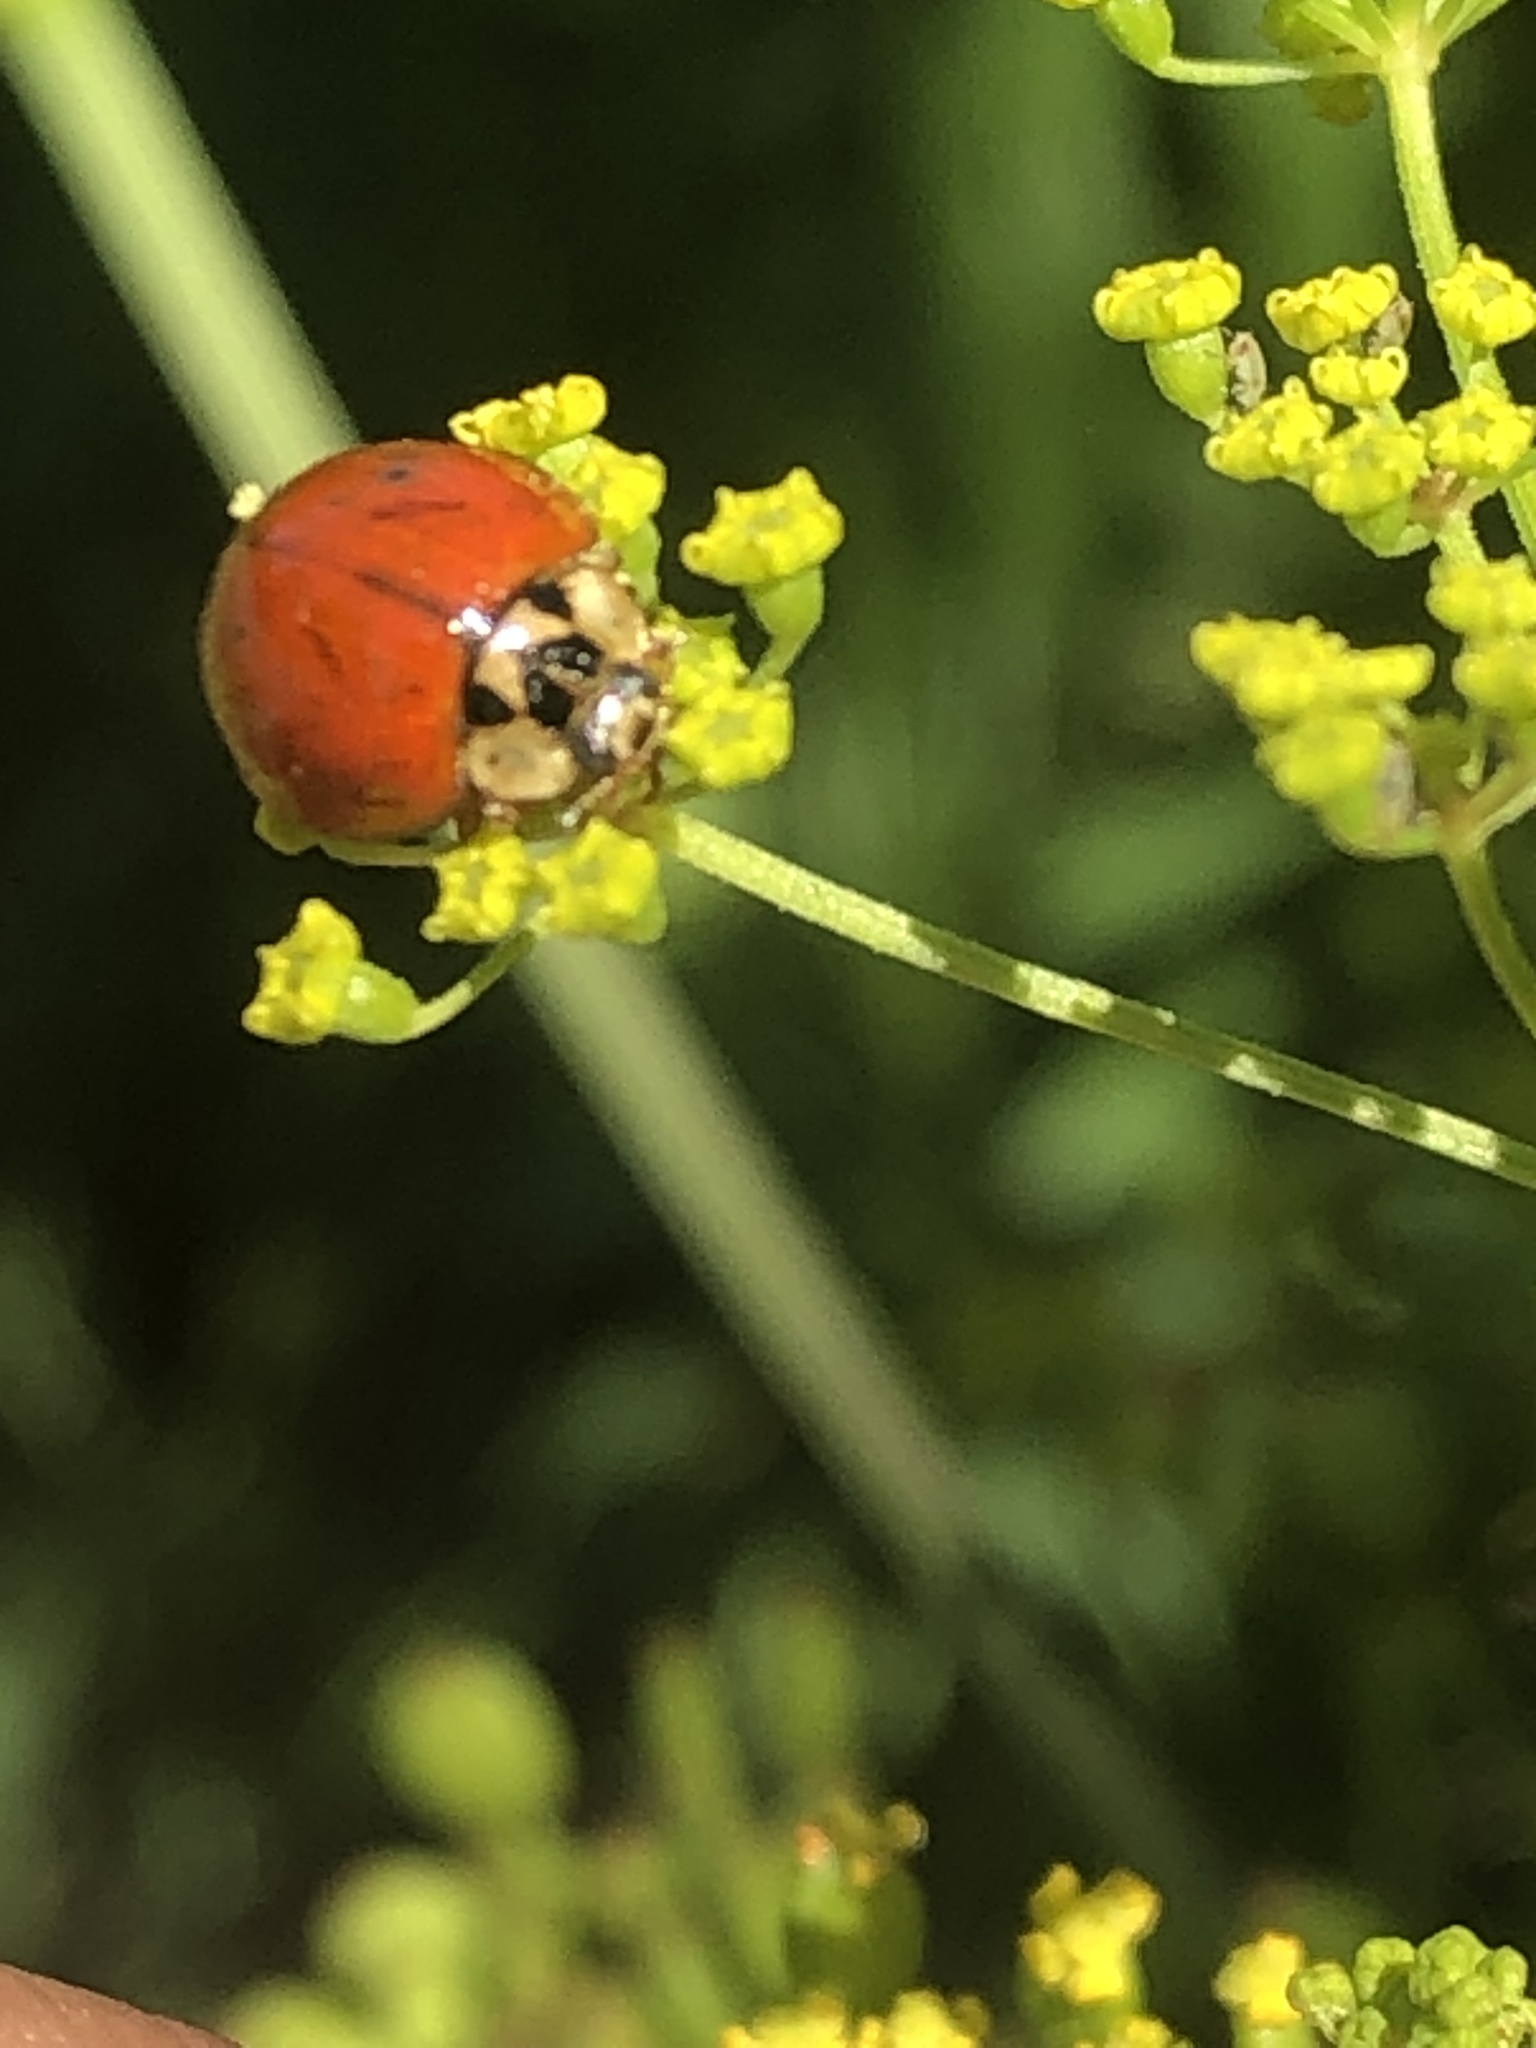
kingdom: Animalia
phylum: Arthropoda
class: Insecta
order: Coleoptera
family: Coccinellidae
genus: Harmonia
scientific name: Harmonia axyridis
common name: Harlequin ladybird
